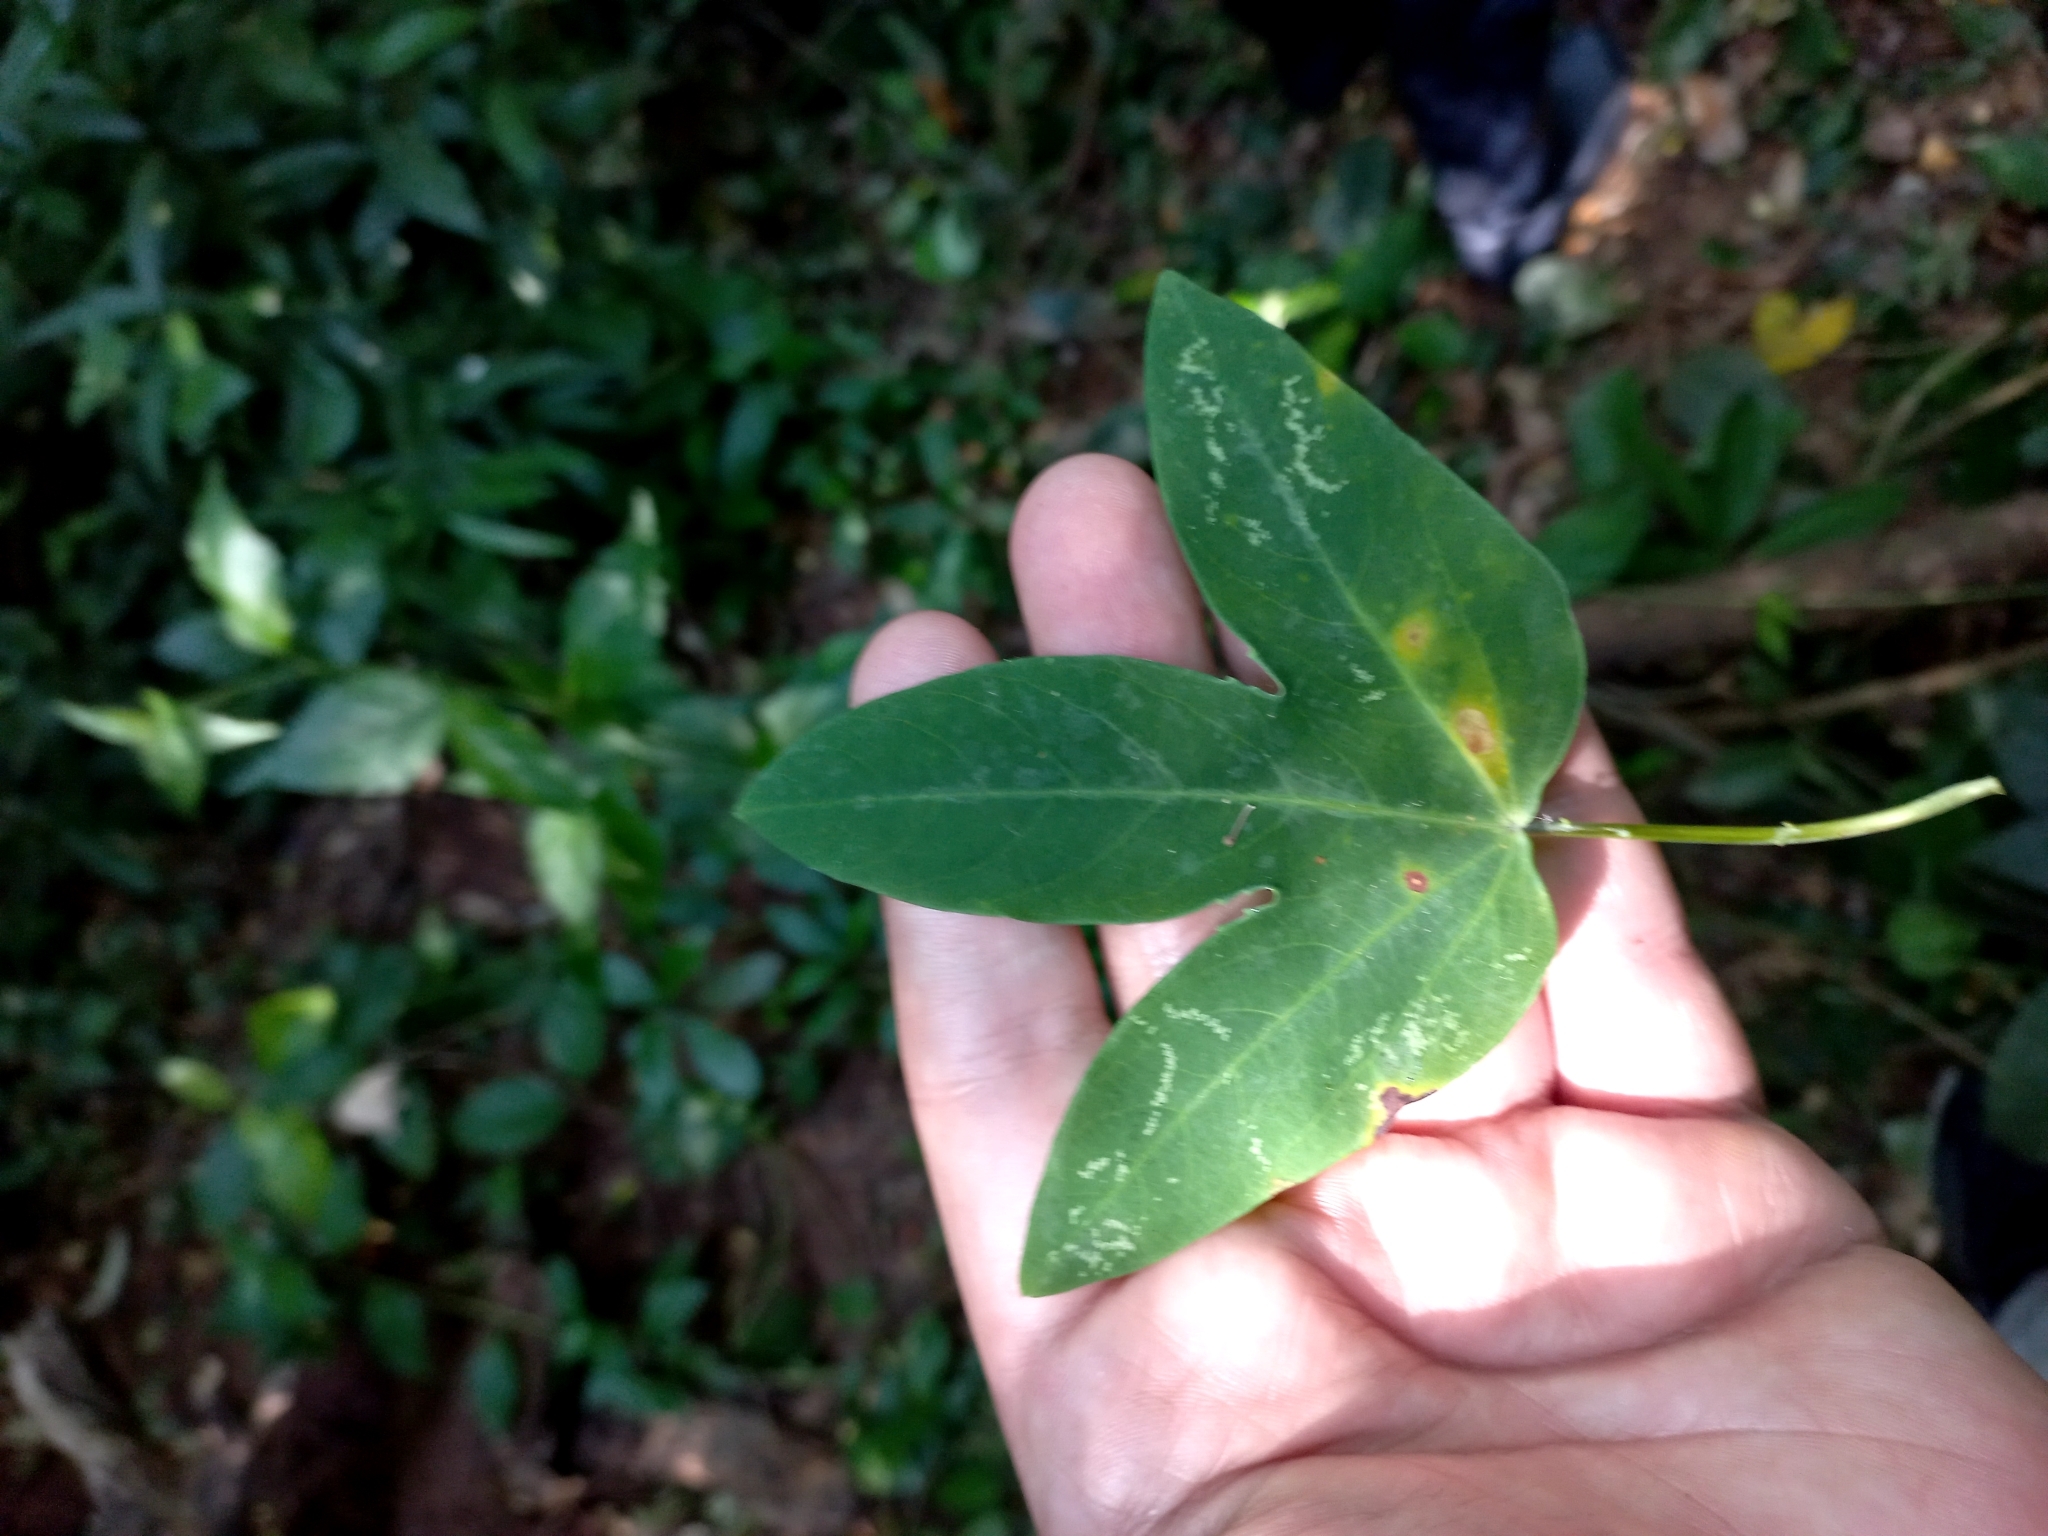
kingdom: Plantae
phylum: Tracheophyta
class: Magnoliopsida
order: Malpighiales
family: Passifloraceae
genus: Passiflora
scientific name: Passiflora tenuifila
